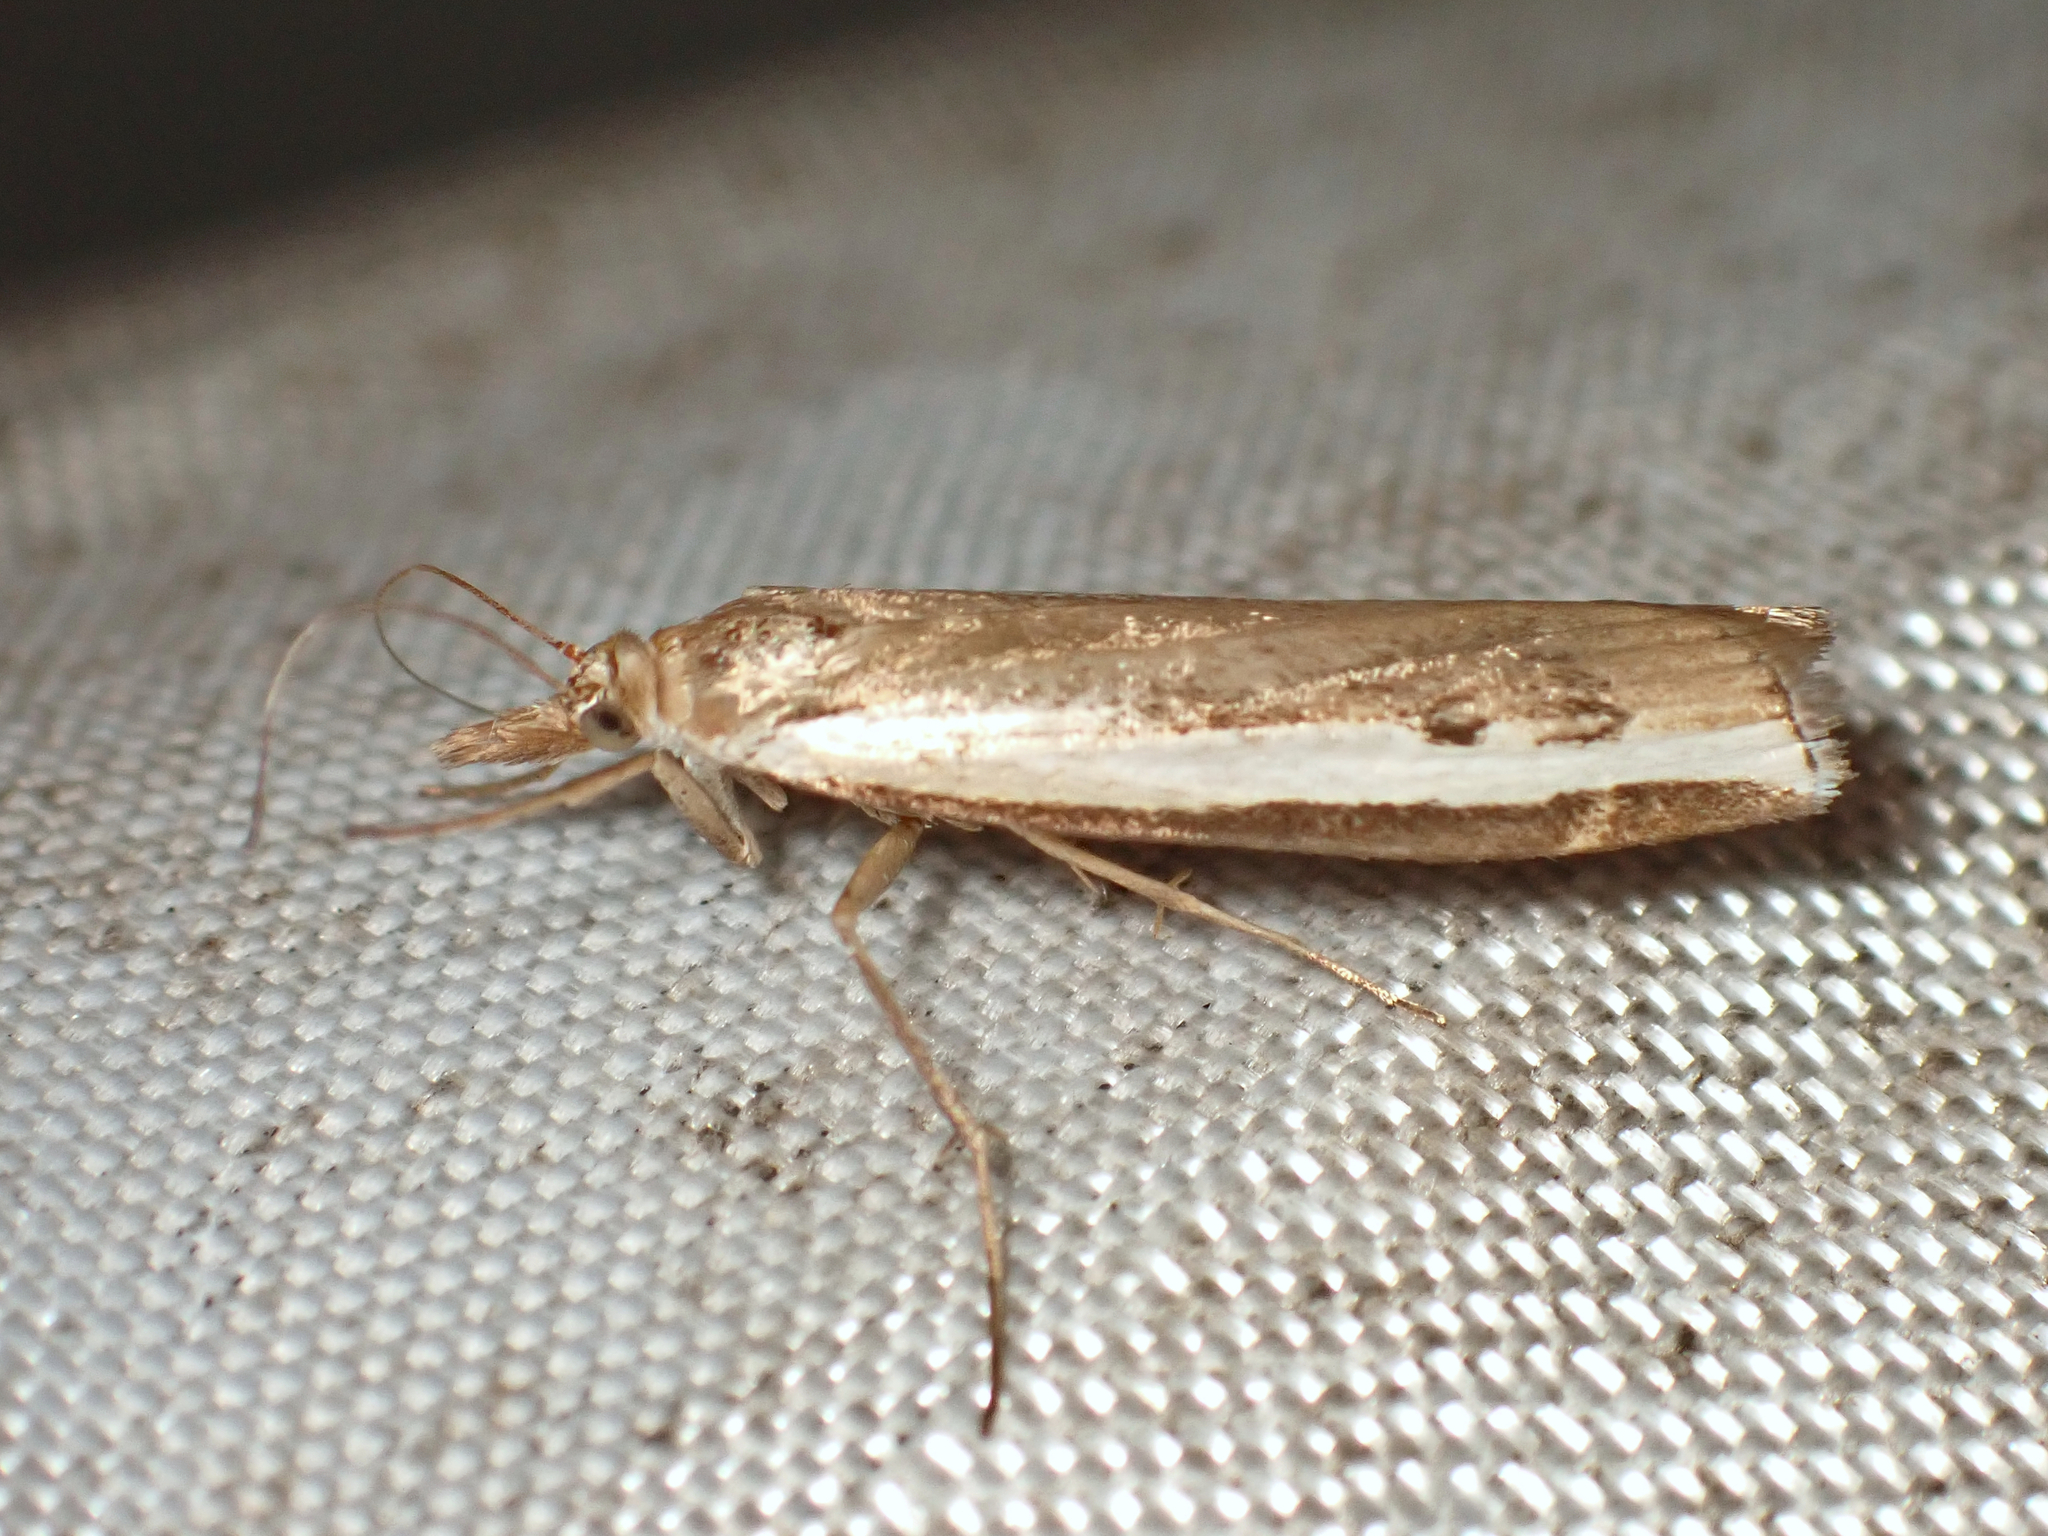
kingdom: Animalia
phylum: Arthropoda
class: Insecta
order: Lepidoptera
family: Crambidae
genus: Orocrambus
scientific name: Orocrambus flexuosellus
